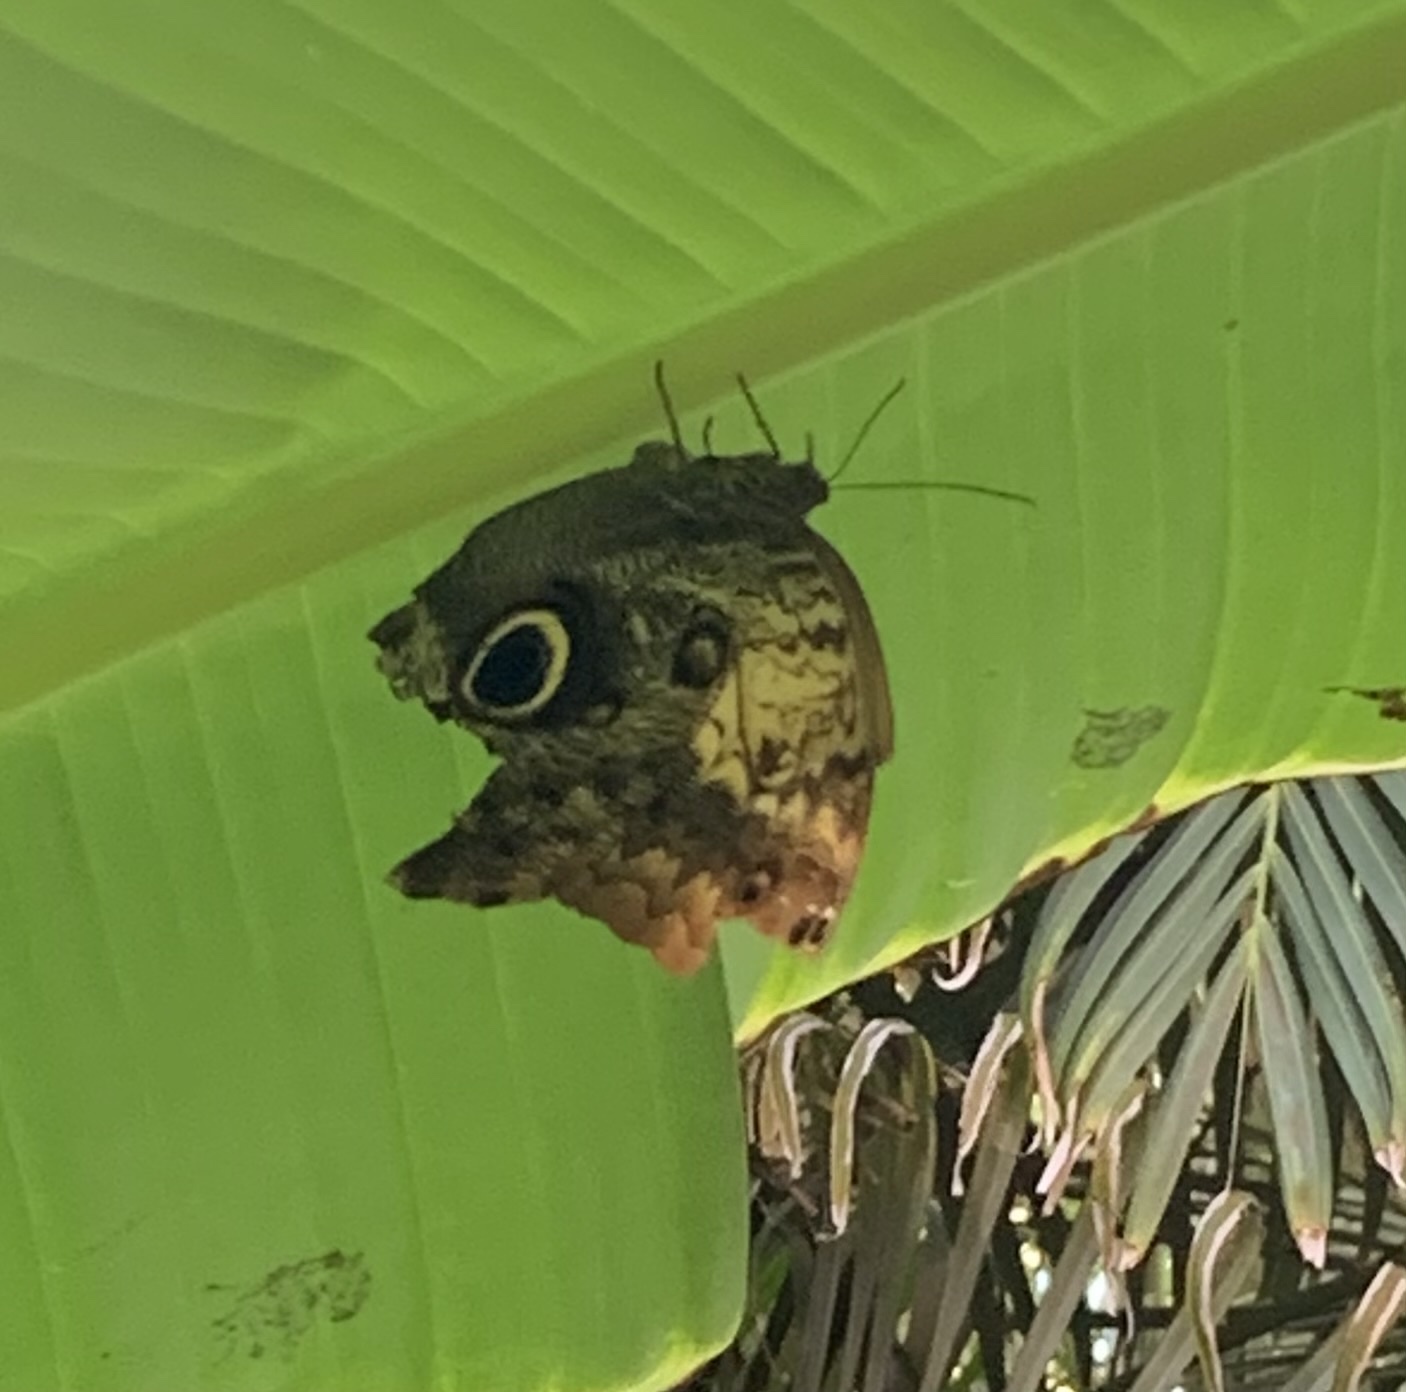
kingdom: Animalia
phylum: Arthropoda
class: Insecta
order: Lepidoptera
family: Nymphalidae
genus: Caligo
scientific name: Caligo telamonius
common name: Pale owl-butterfly
